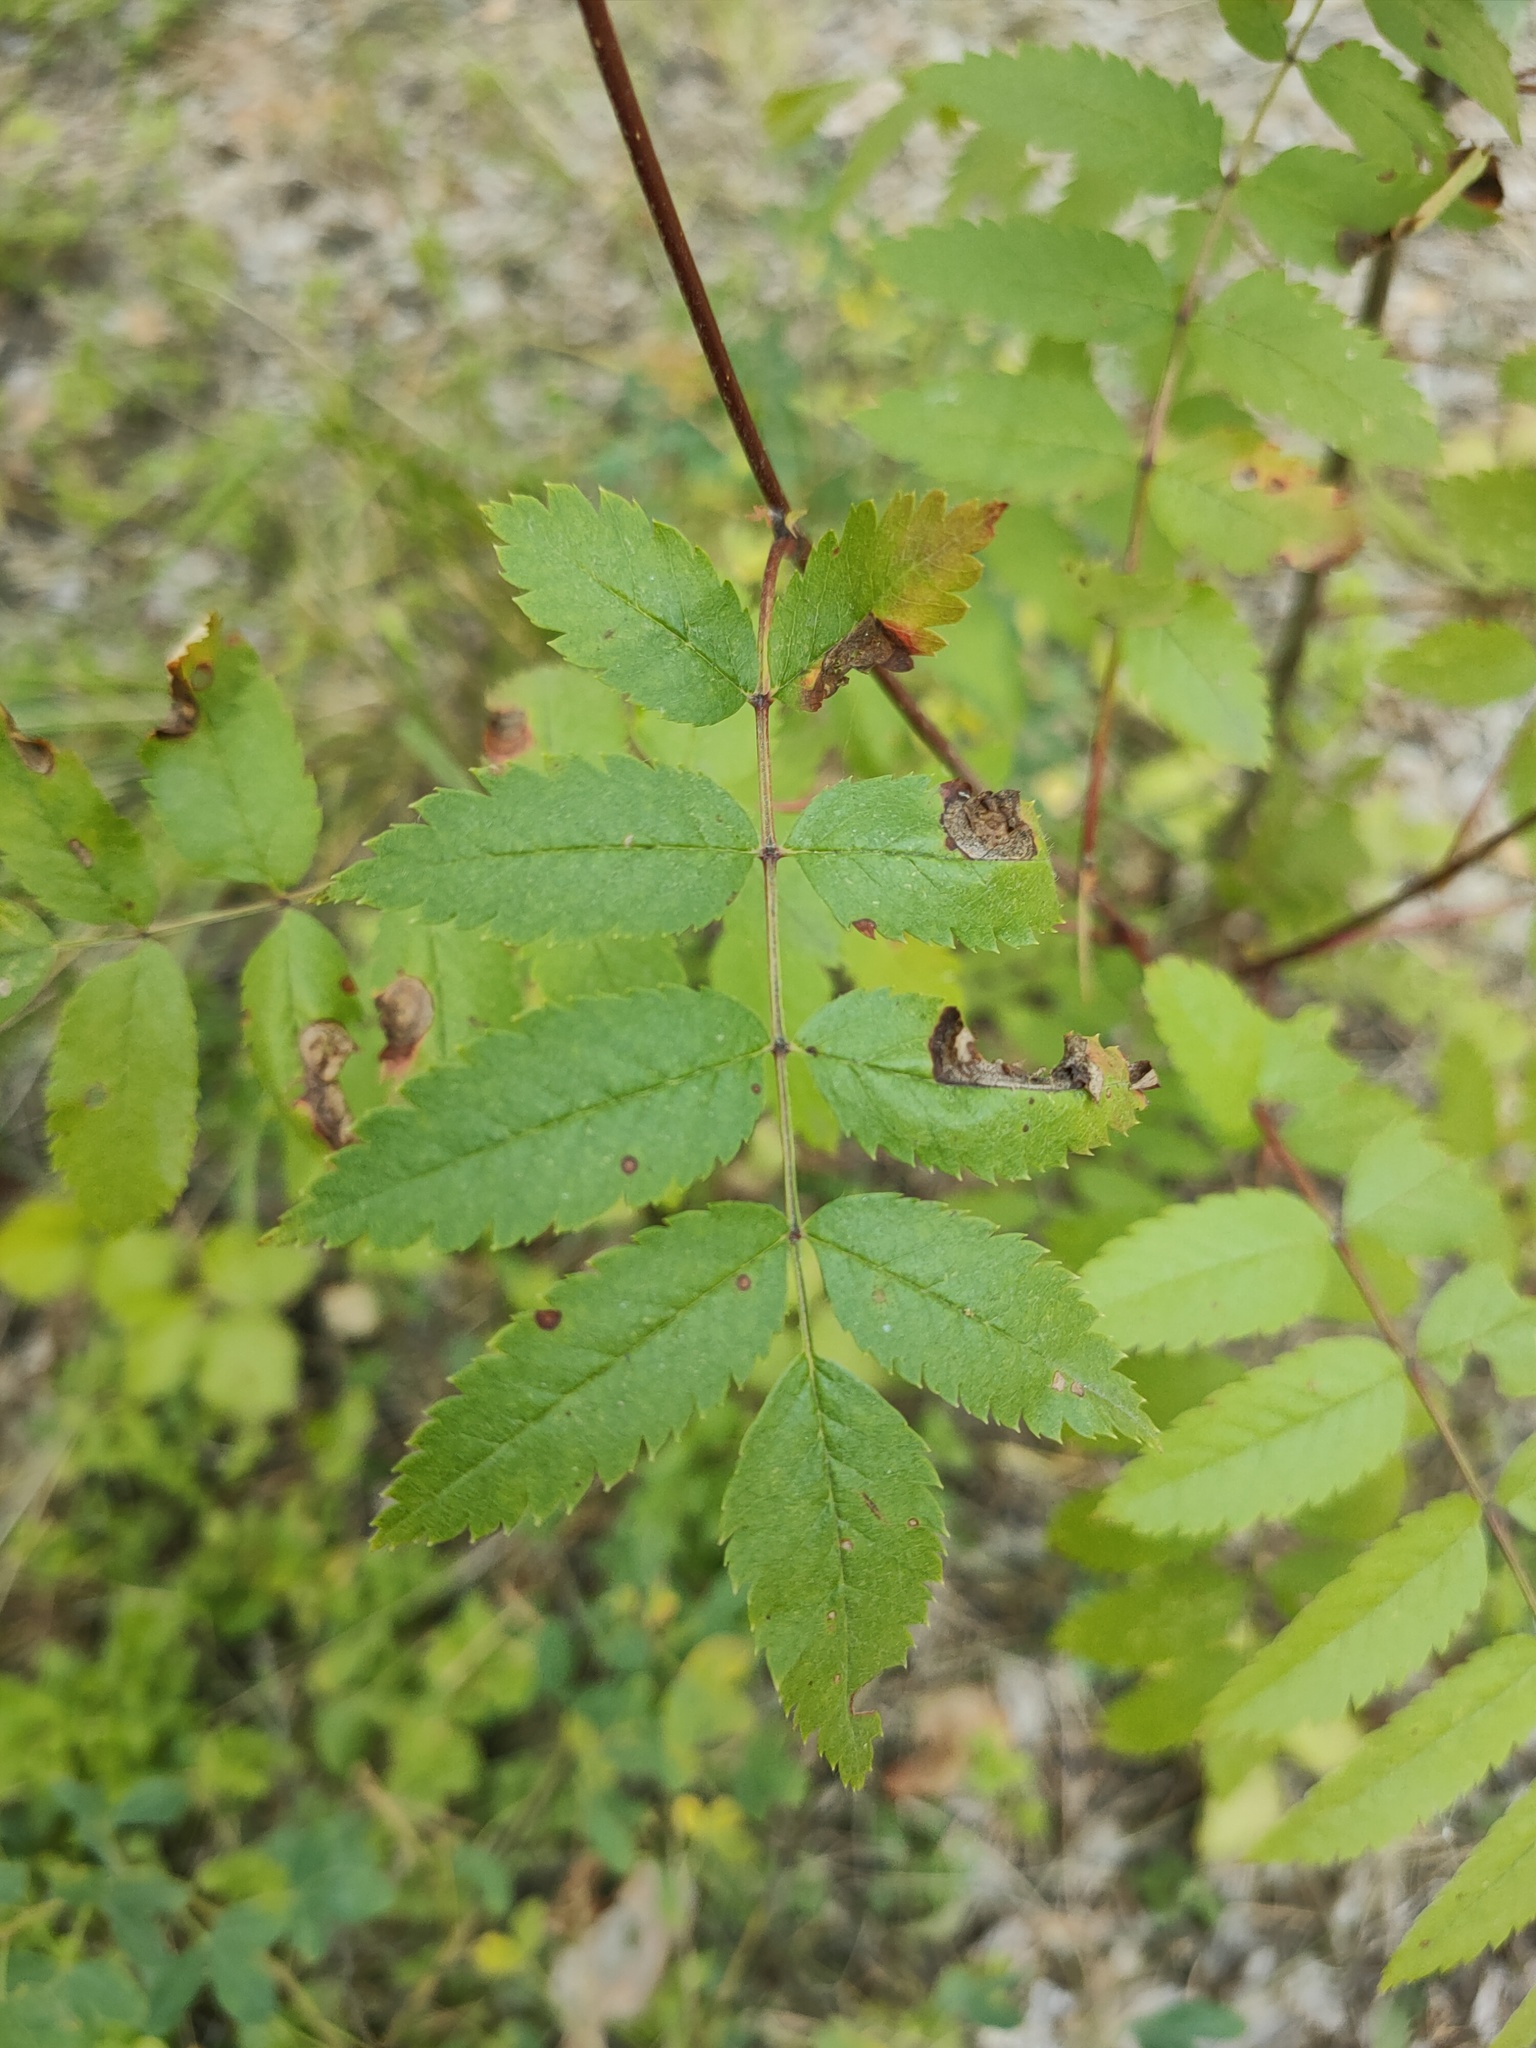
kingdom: Plantae
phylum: Tracheophyta
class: Magnoliopsida
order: Rosales
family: Rosaceae
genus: Sorbus
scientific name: Sorbus aucuparia
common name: Rowan
